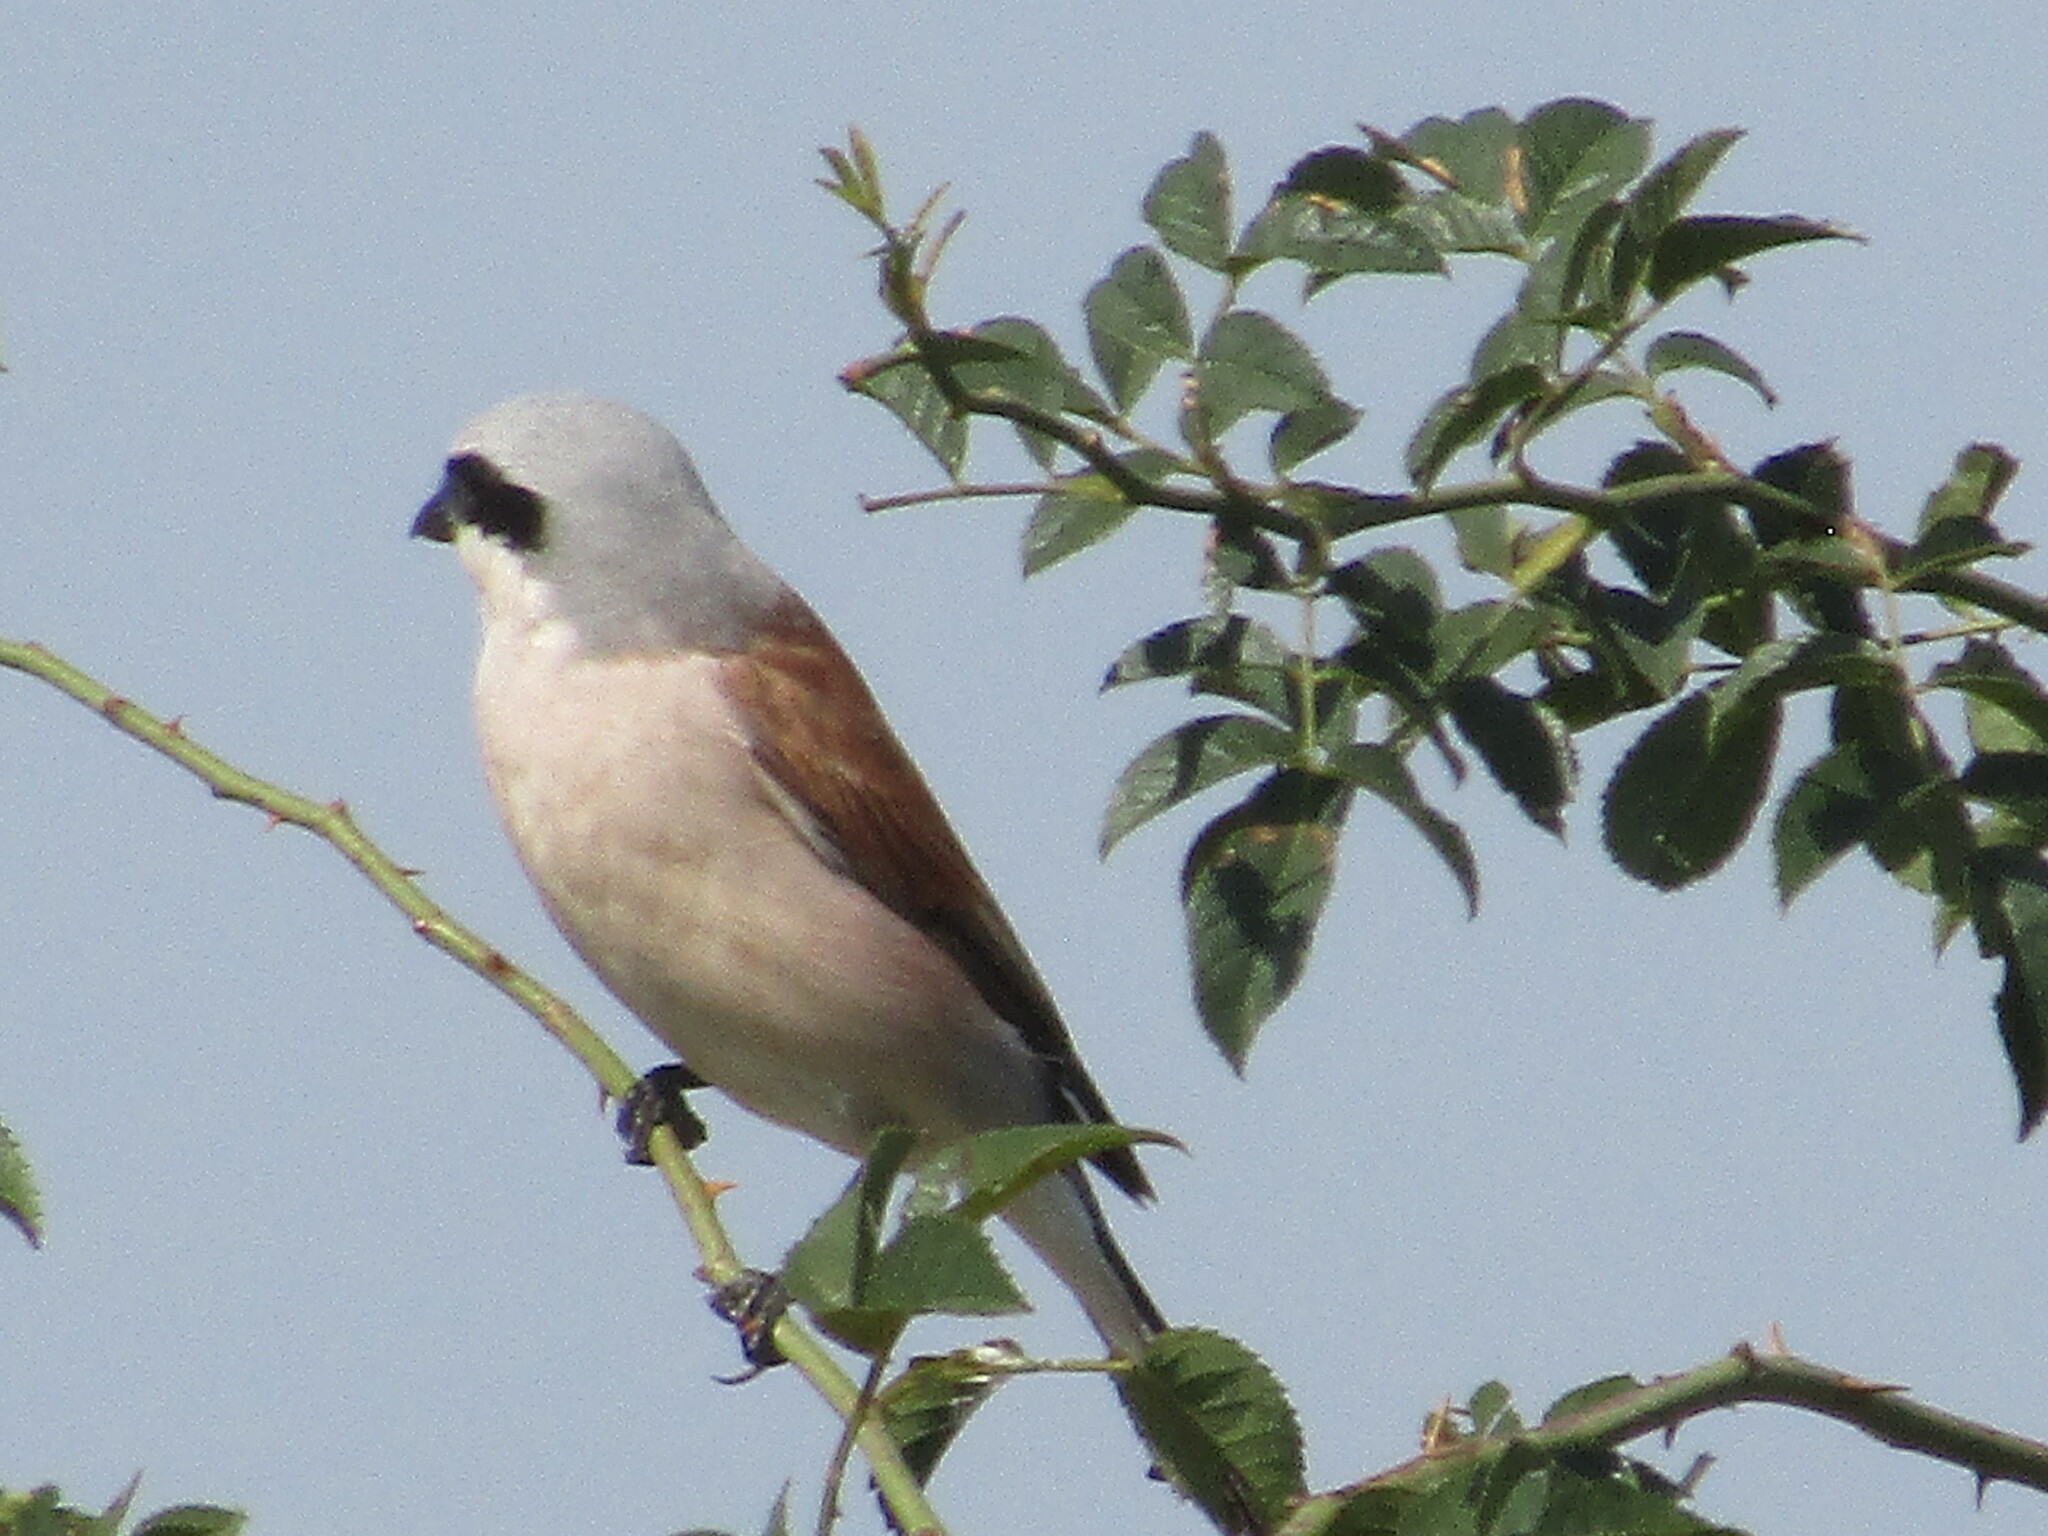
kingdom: Animalia
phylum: Chordata
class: Aves
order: Passeriformes
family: Laniidae
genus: Lanius
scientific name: Lanius collurio
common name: Red-backed shrike
